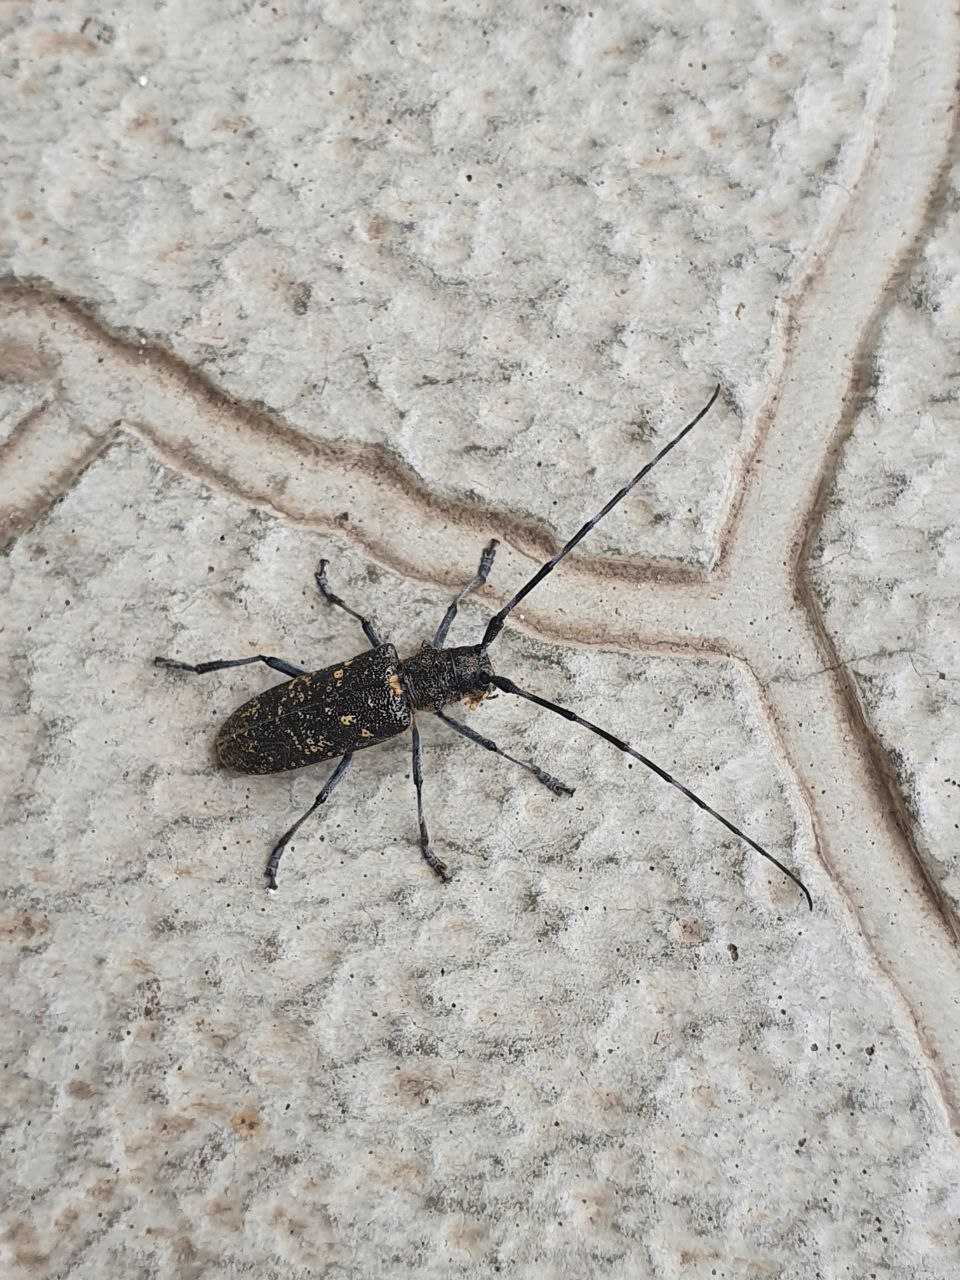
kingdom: Animalia
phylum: Arthropoda
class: Insecta
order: Coleoptera
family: Cerambycidae
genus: Monochamus
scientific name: Monochamus sutor
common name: Pine sawyer
